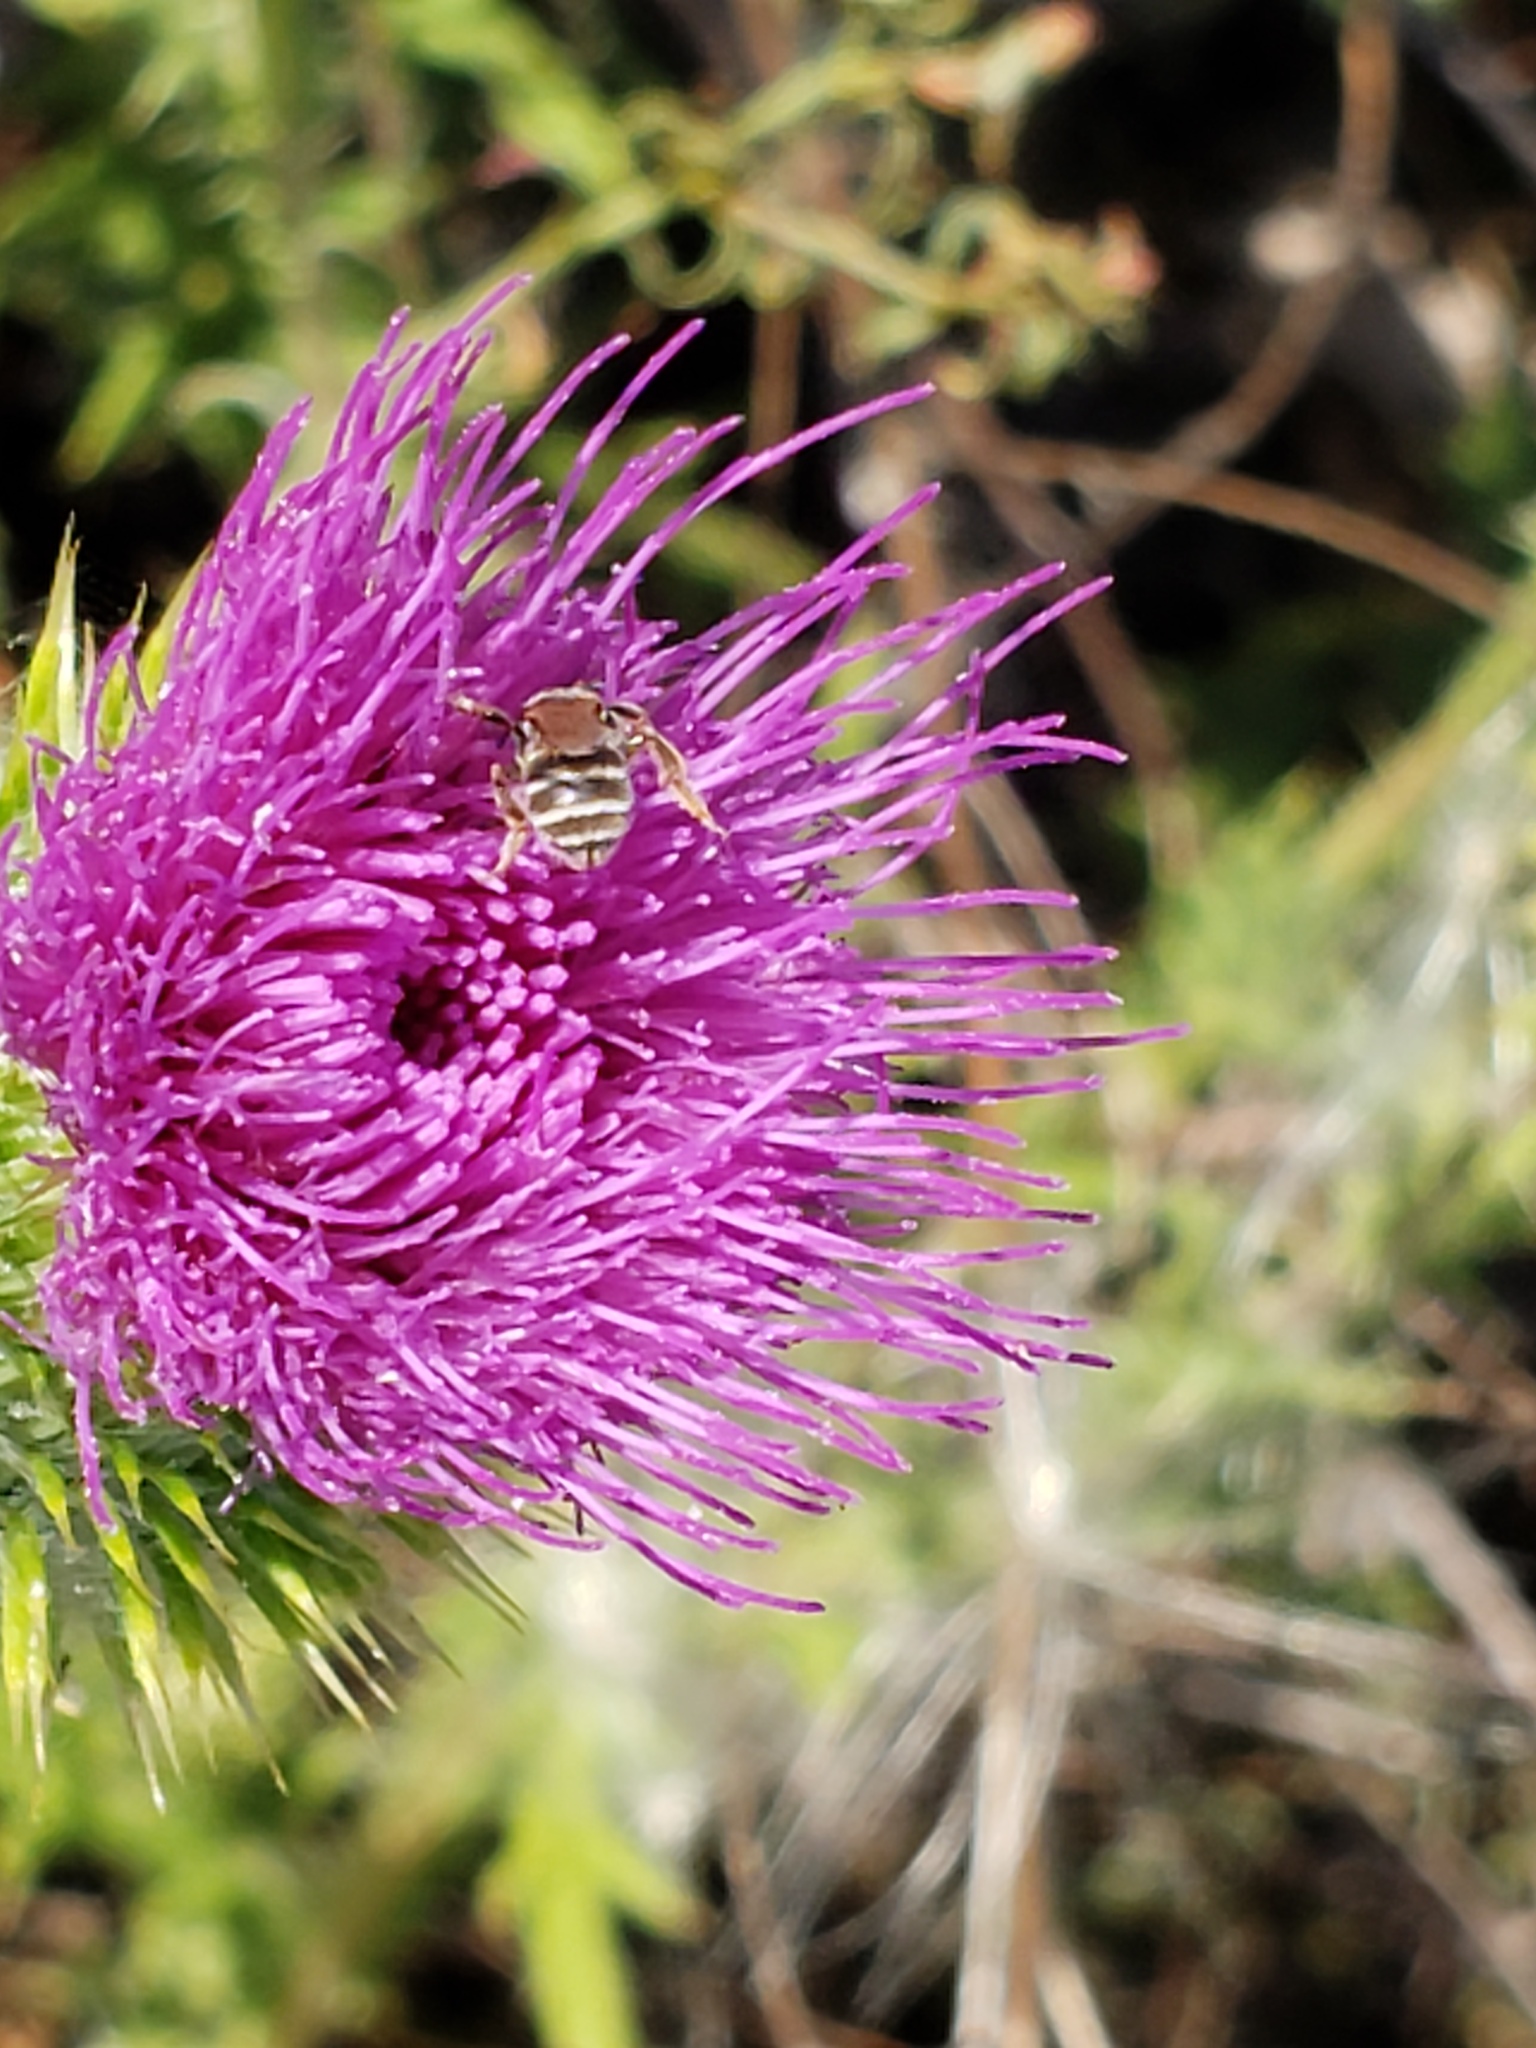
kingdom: Animalia
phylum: Arthropoda
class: Insecta
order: Hymenoptera
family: Halictidae
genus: Halictus
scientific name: Halictus tripartitus
